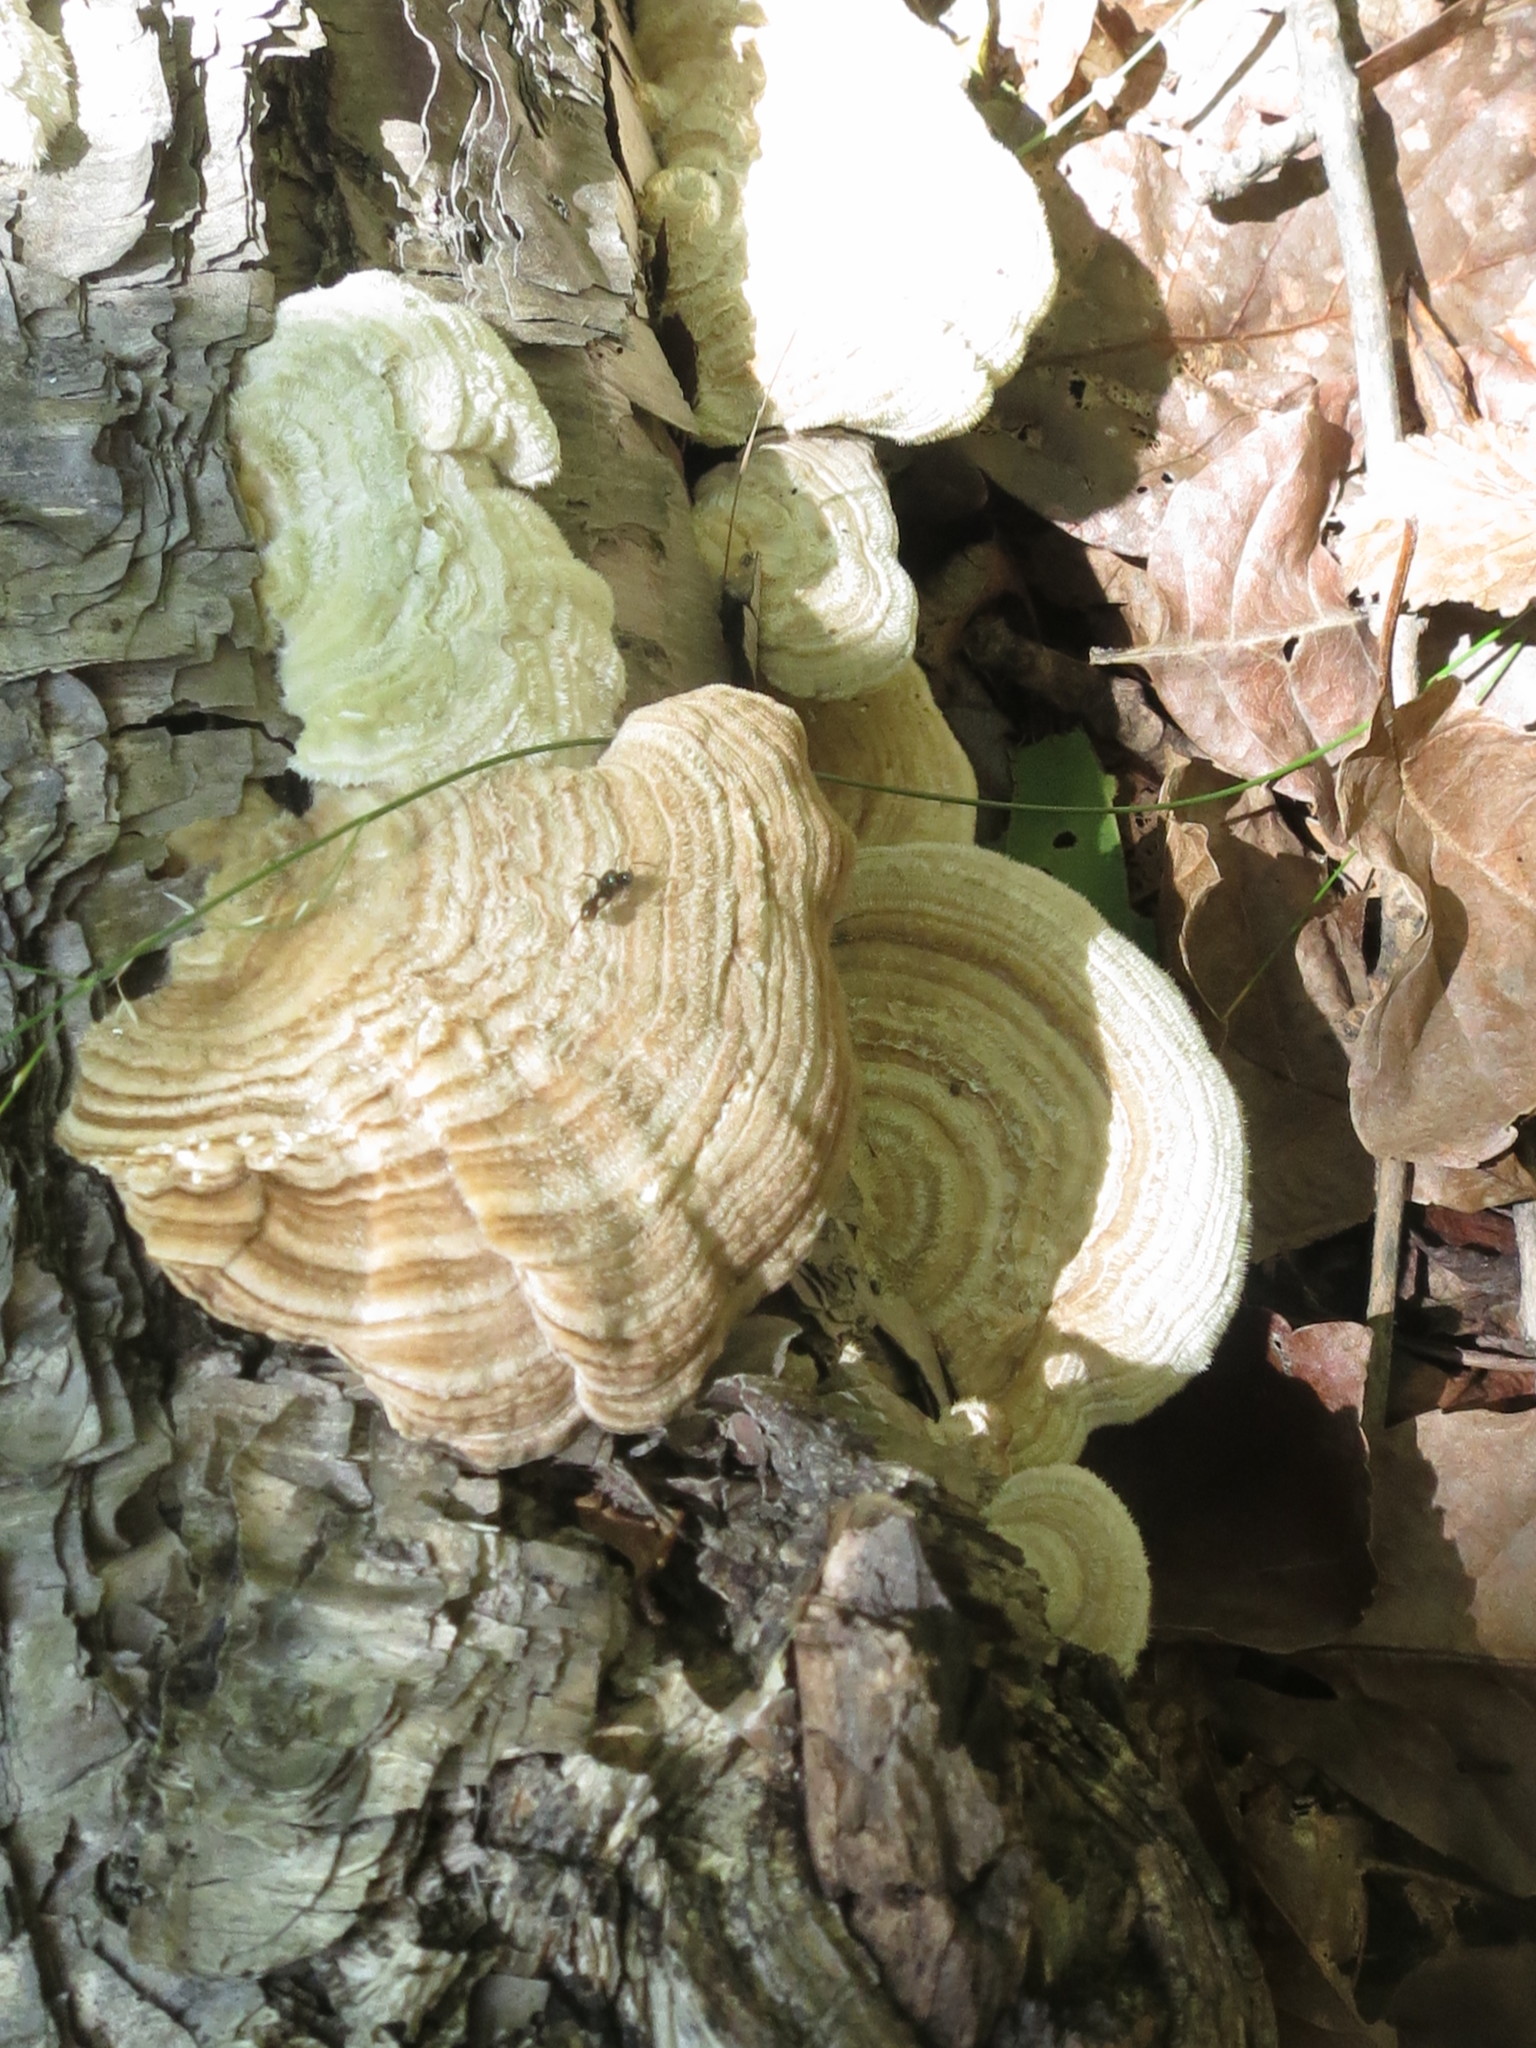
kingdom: Fungi
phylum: Basidiomycota
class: Agaricomycetes
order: Polyporales
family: Polyporaceae
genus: Lenzites
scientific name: Lenzites betulinus
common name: Birch mazegill
